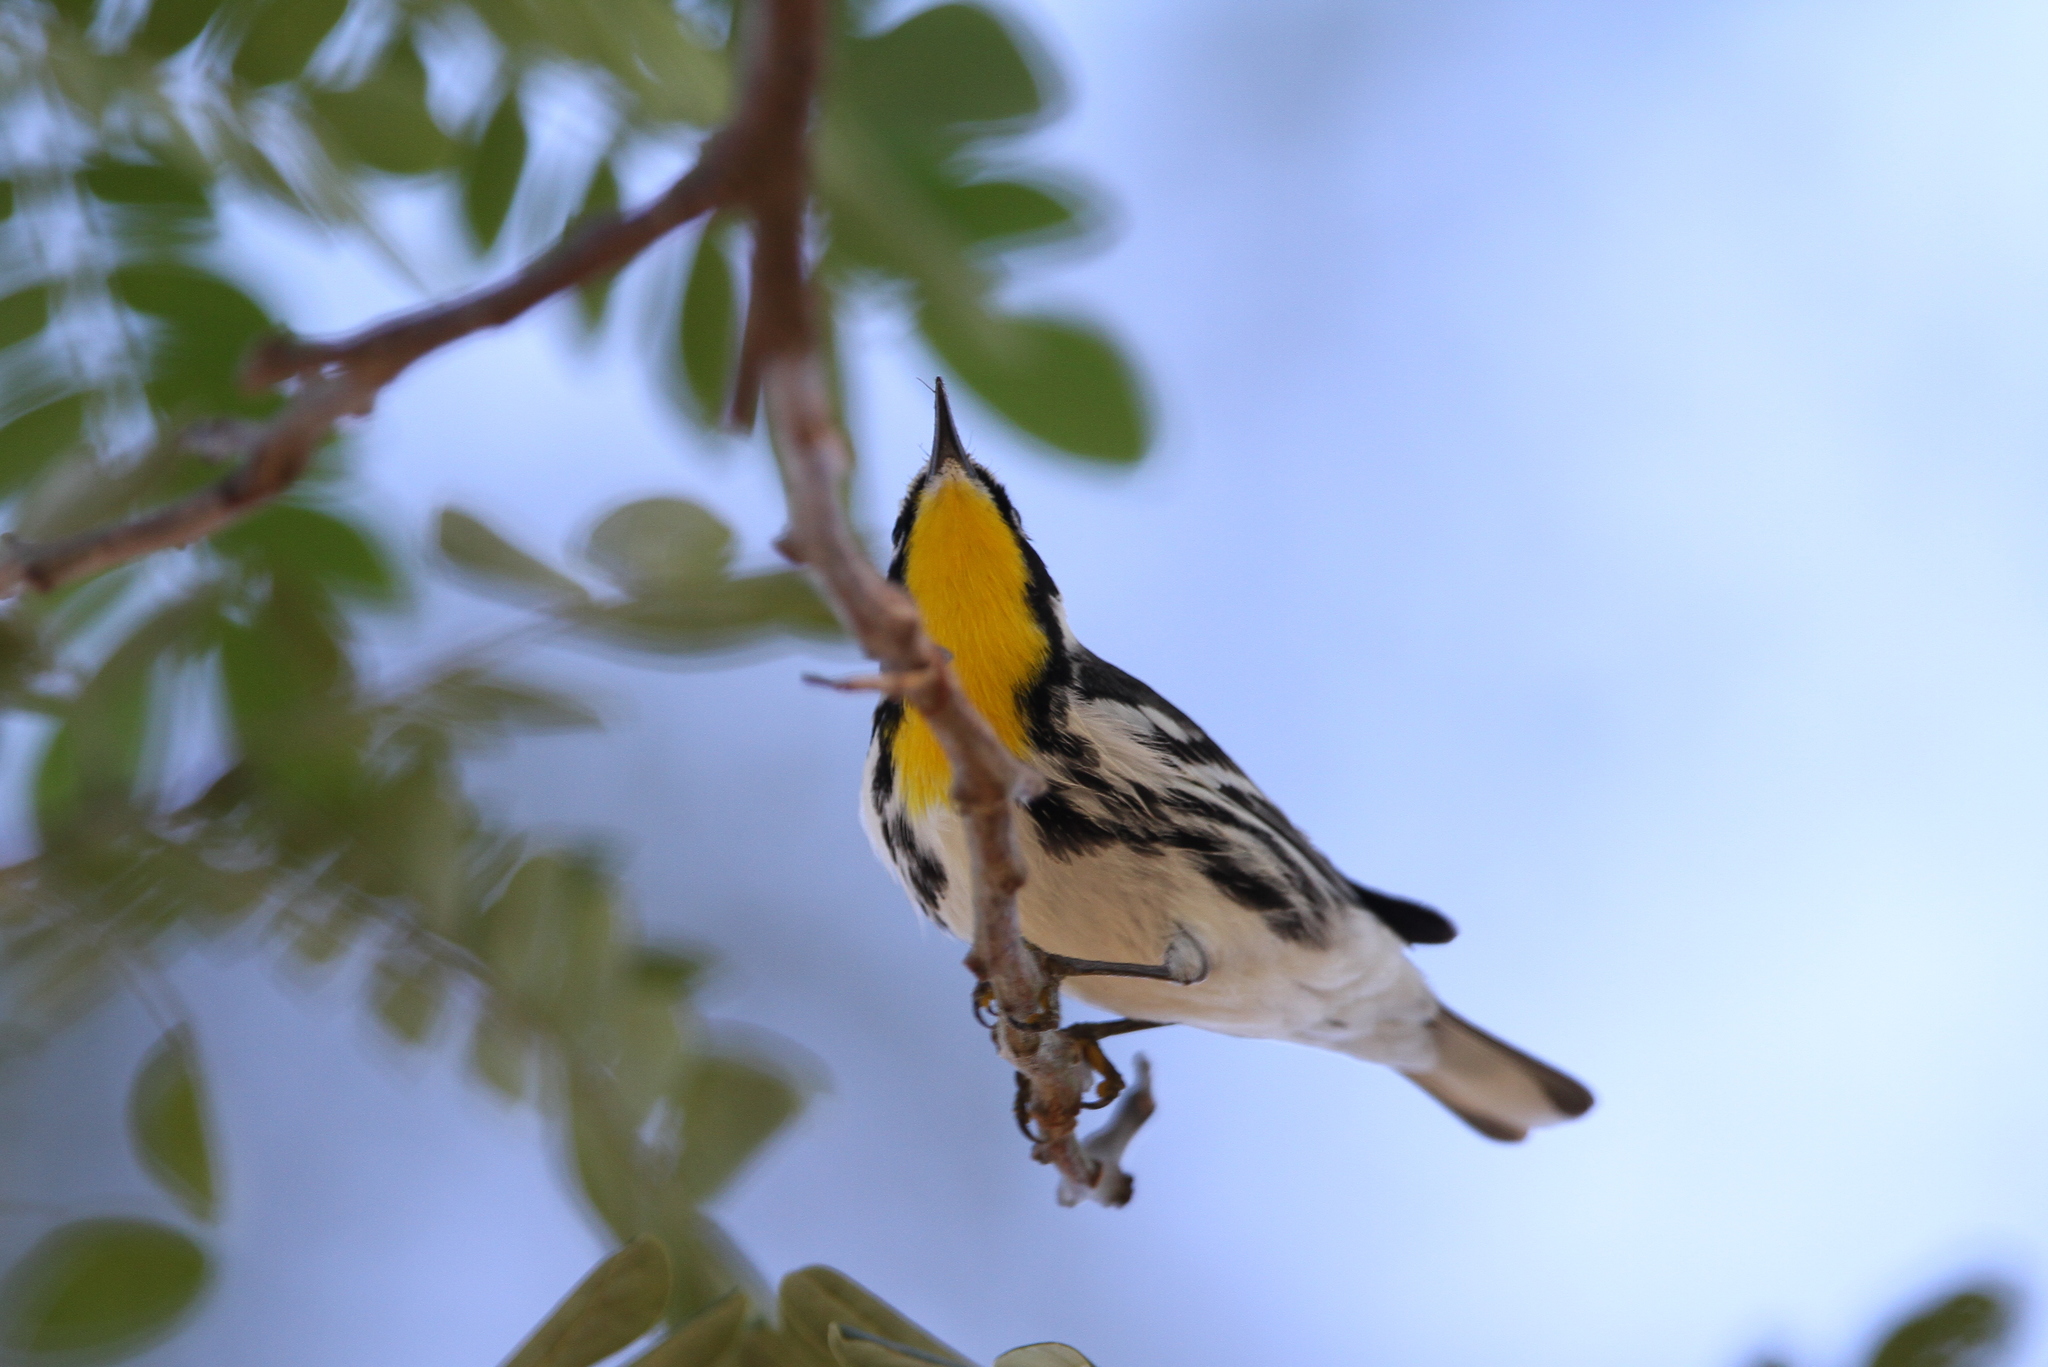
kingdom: Animalia
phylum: Chordata
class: Aves
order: Passeriformes
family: Parulidae
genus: Setophaga
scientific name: Setophaga dominica
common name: Yellow-throated warbler
